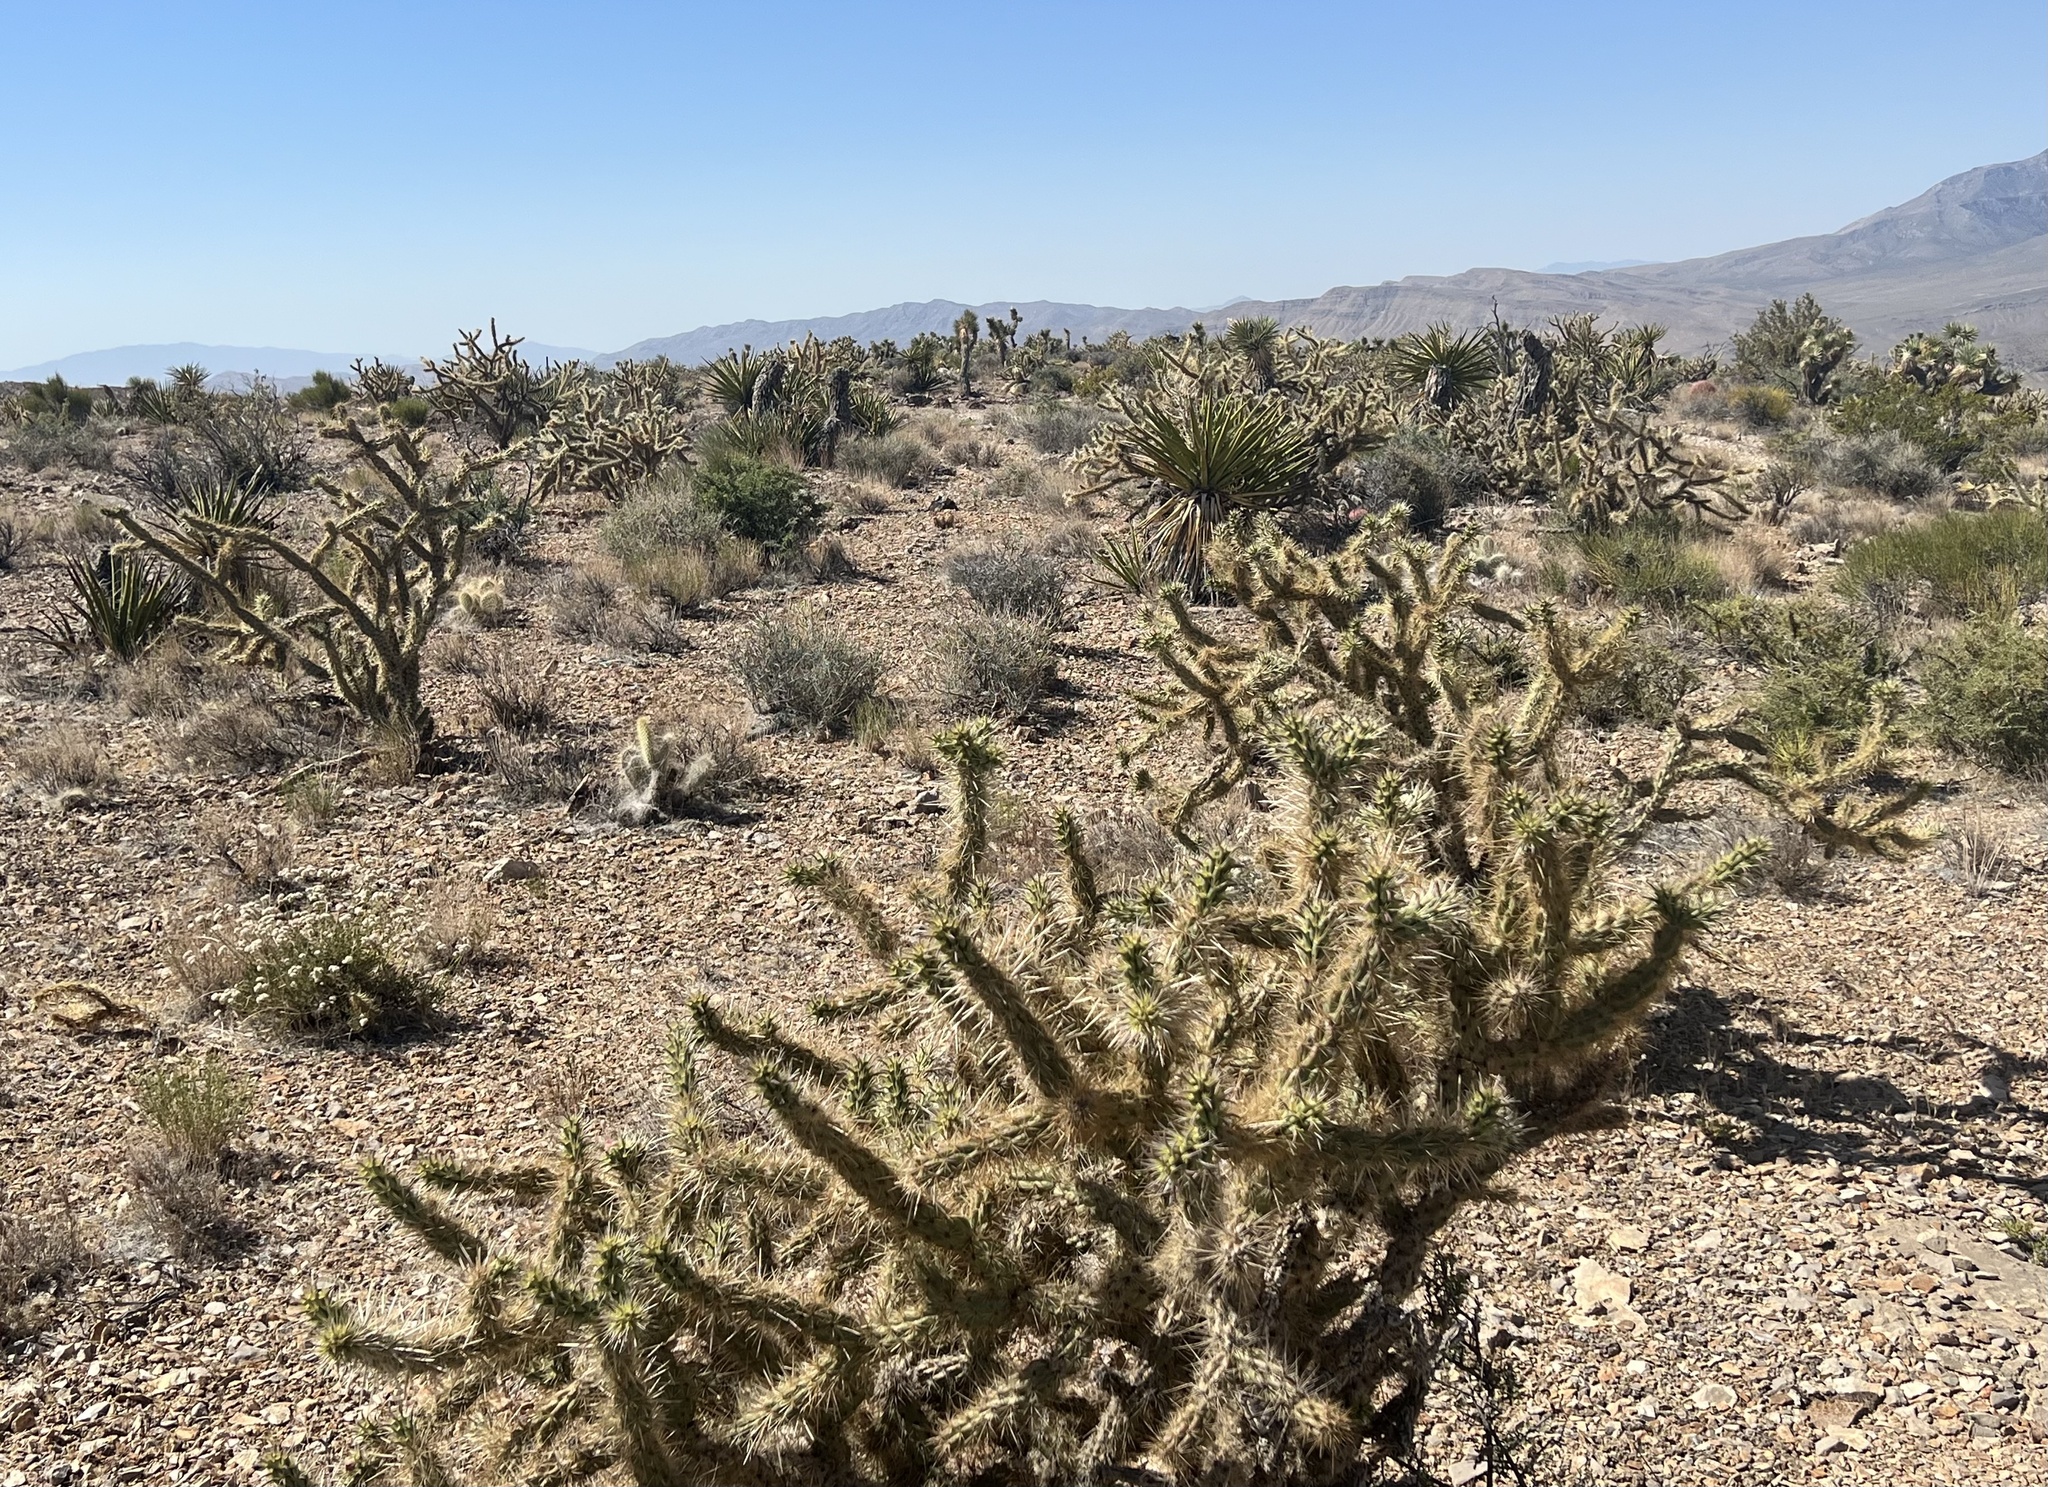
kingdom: Plantae
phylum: Tracheophyta
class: Magnoliopsida
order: Caryophyllales
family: Cactaceae
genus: Cylindropuntia
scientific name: Cylindropuntia acanthocarpa
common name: Buckhorn cholla
